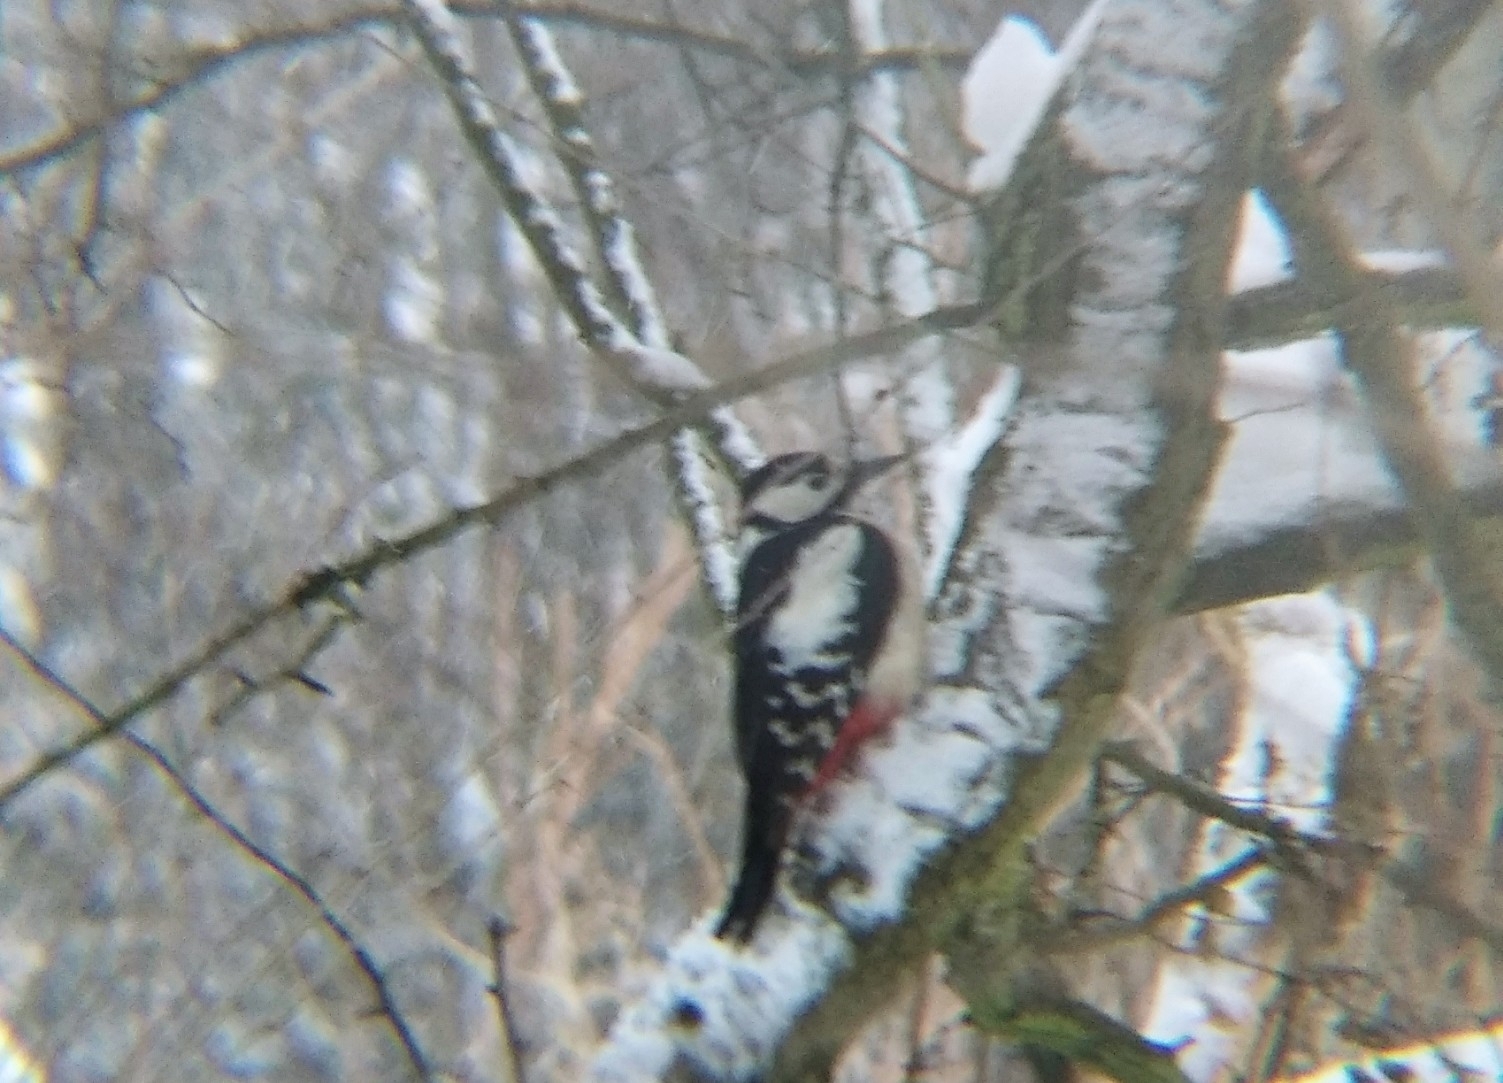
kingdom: Animalia
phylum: Chordata
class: Aves
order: Piciformes
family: Picidae
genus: Dendrocopos
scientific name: Dendrocopos major
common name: Great spotted woodpecker
